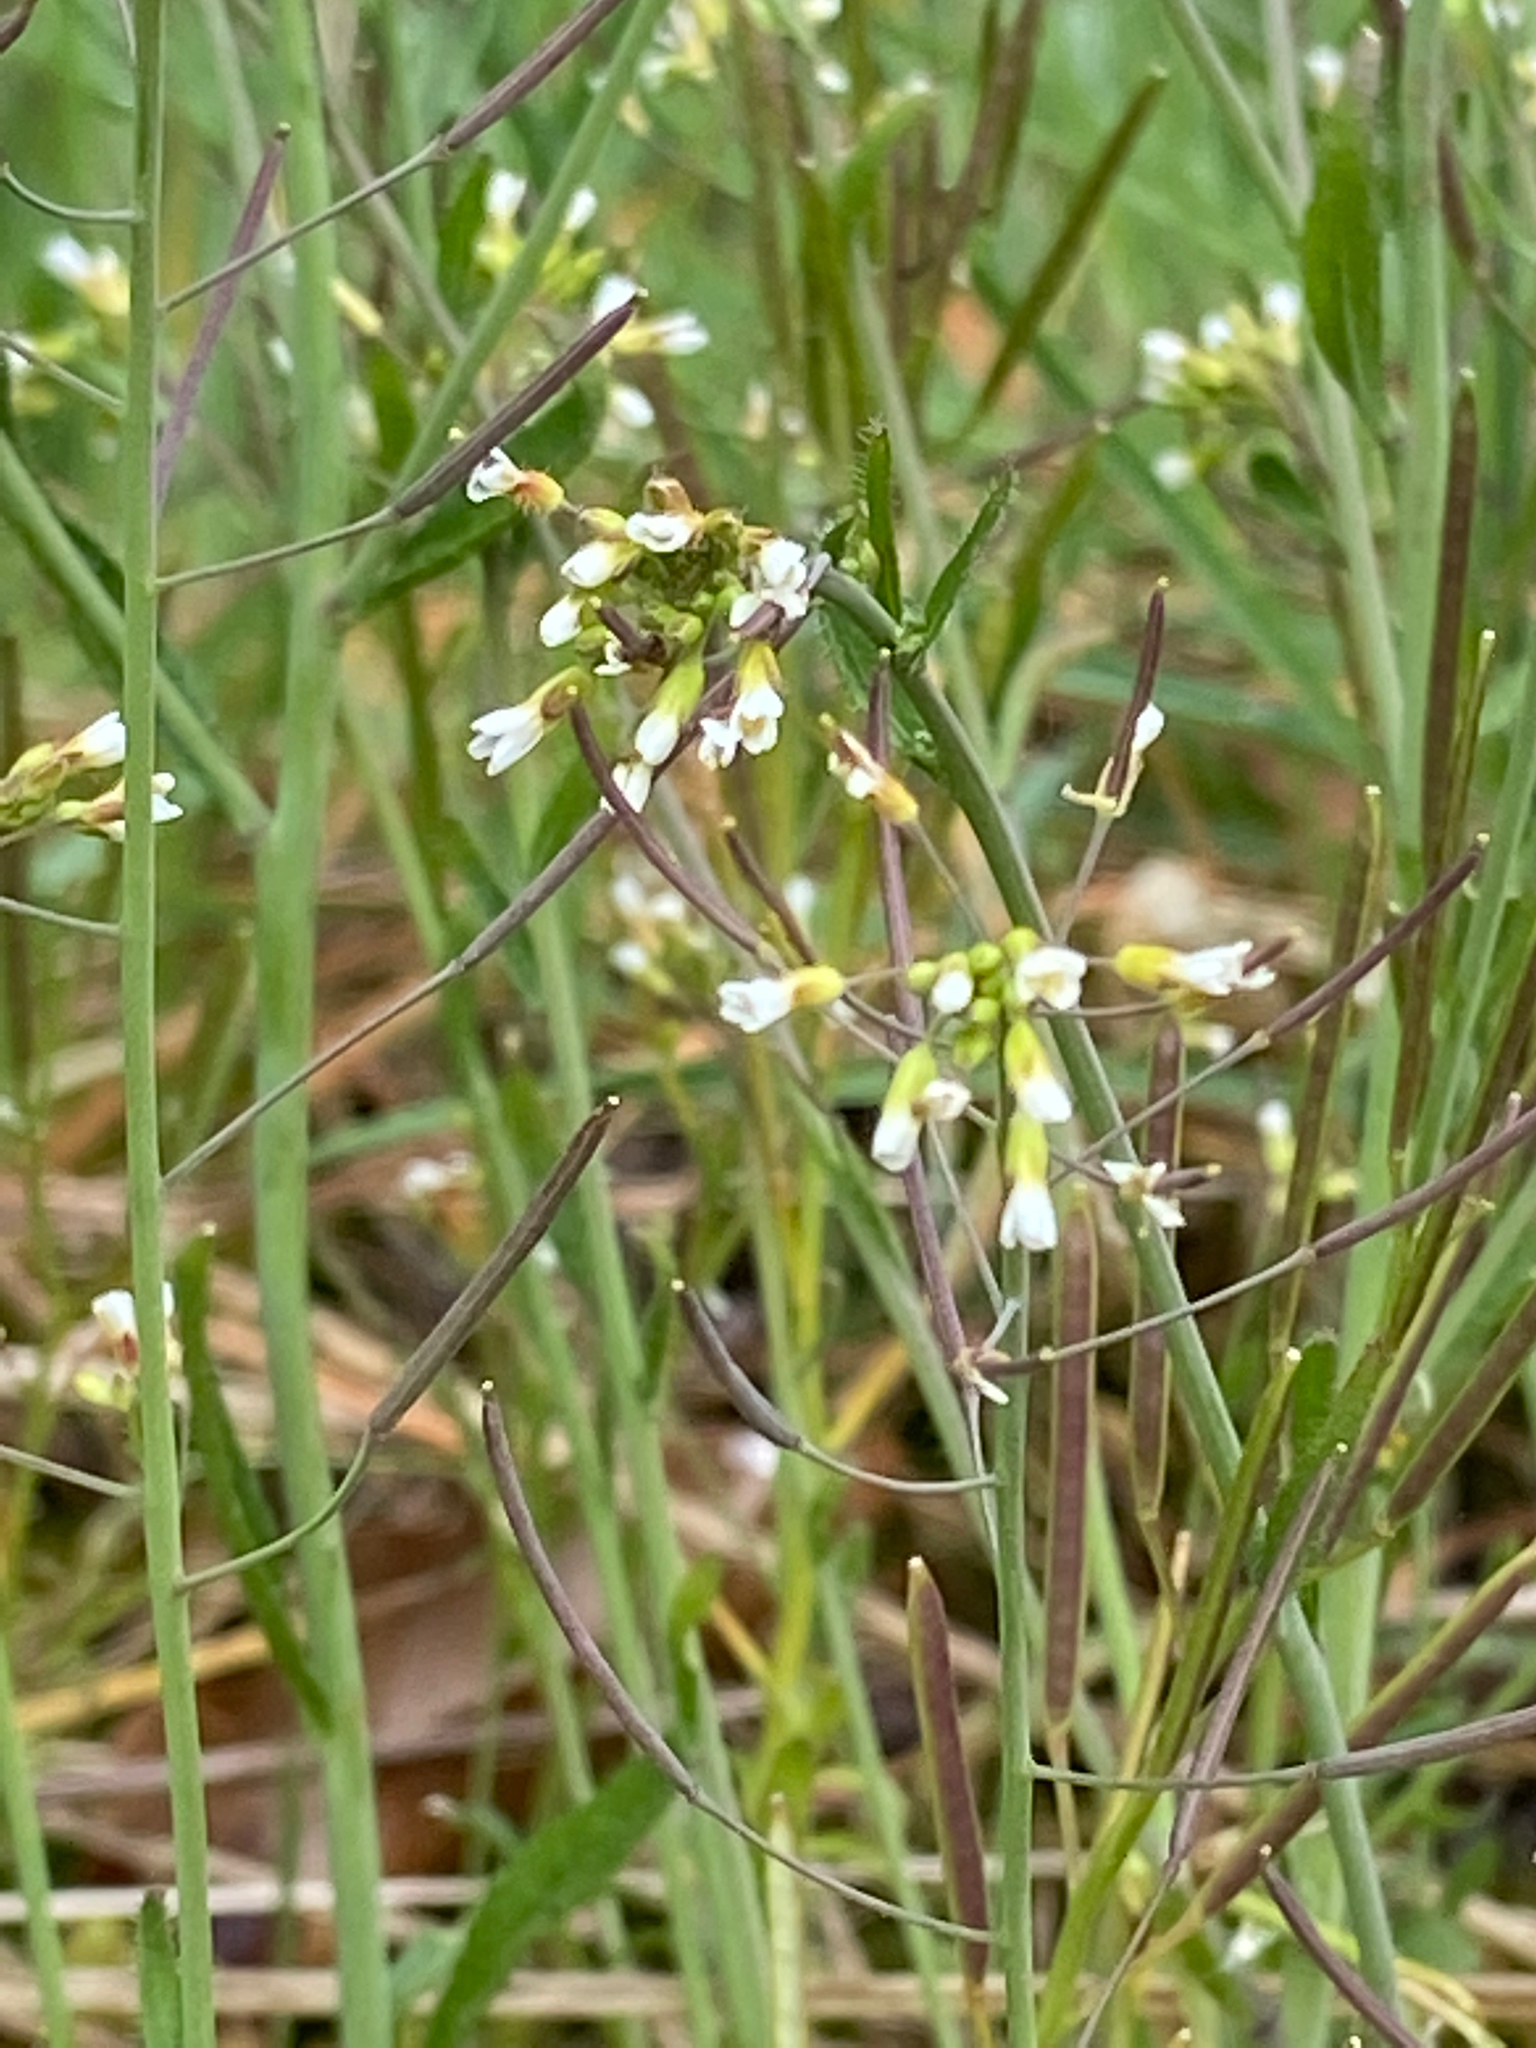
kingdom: Plantae
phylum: Tracheophyta
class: Magnoliopsida
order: Brassicales
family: Brassicaceae
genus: Arabidopsis
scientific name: Arabidopsis thaliana
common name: Thale cress
